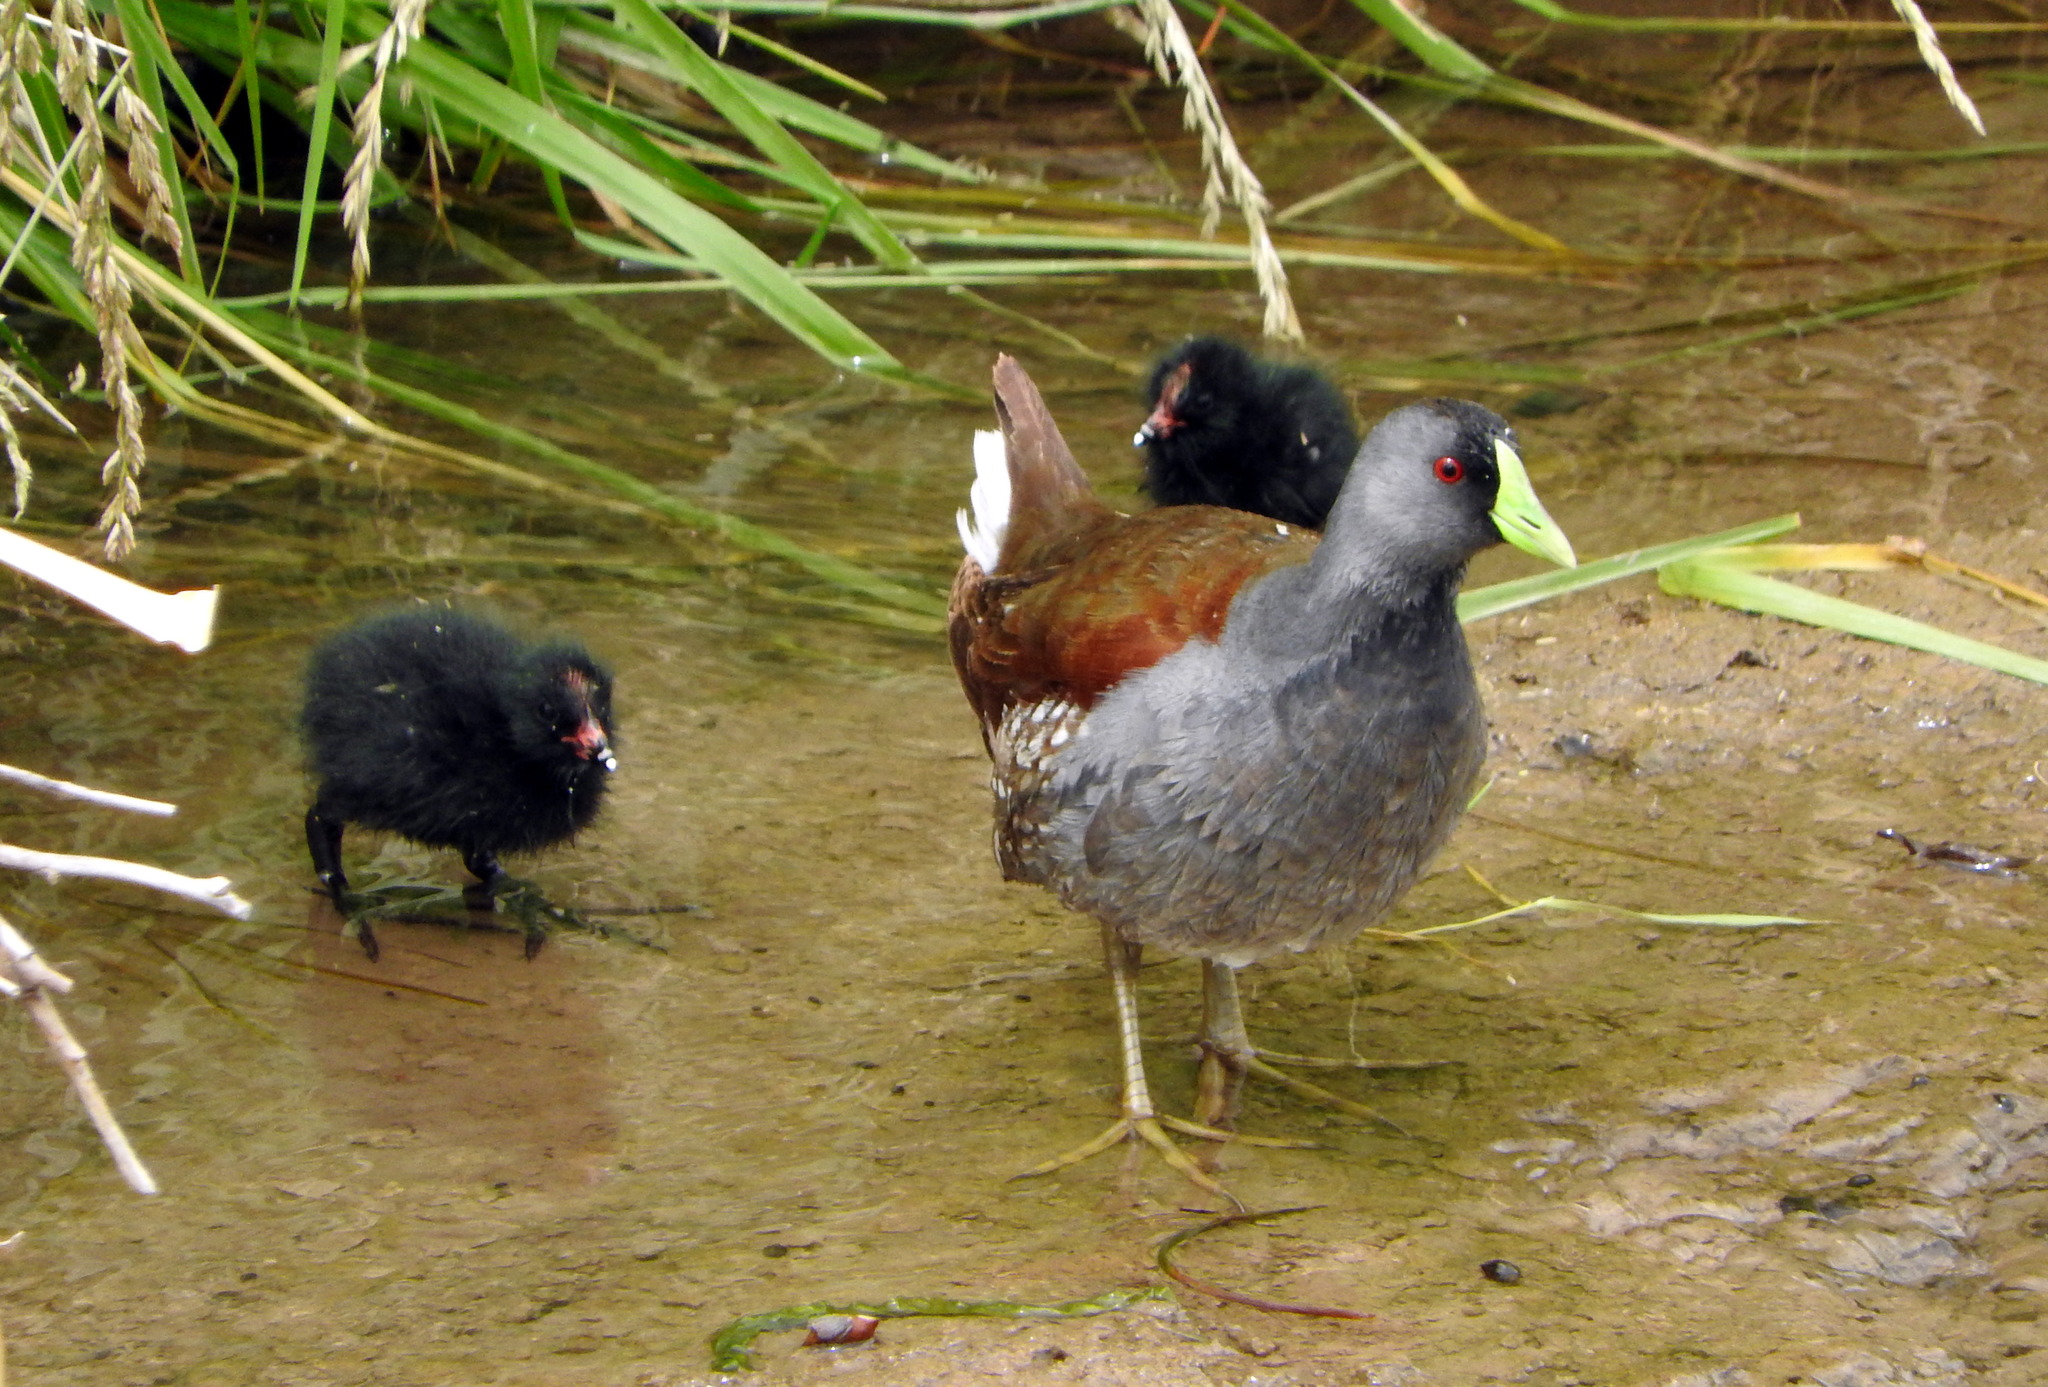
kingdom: Animalia
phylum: Chordata
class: Aves
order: Gruiformes
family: Rallidae
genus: Gallinula
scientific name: Gallinula melanops
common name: Spot-flanked gallinule
